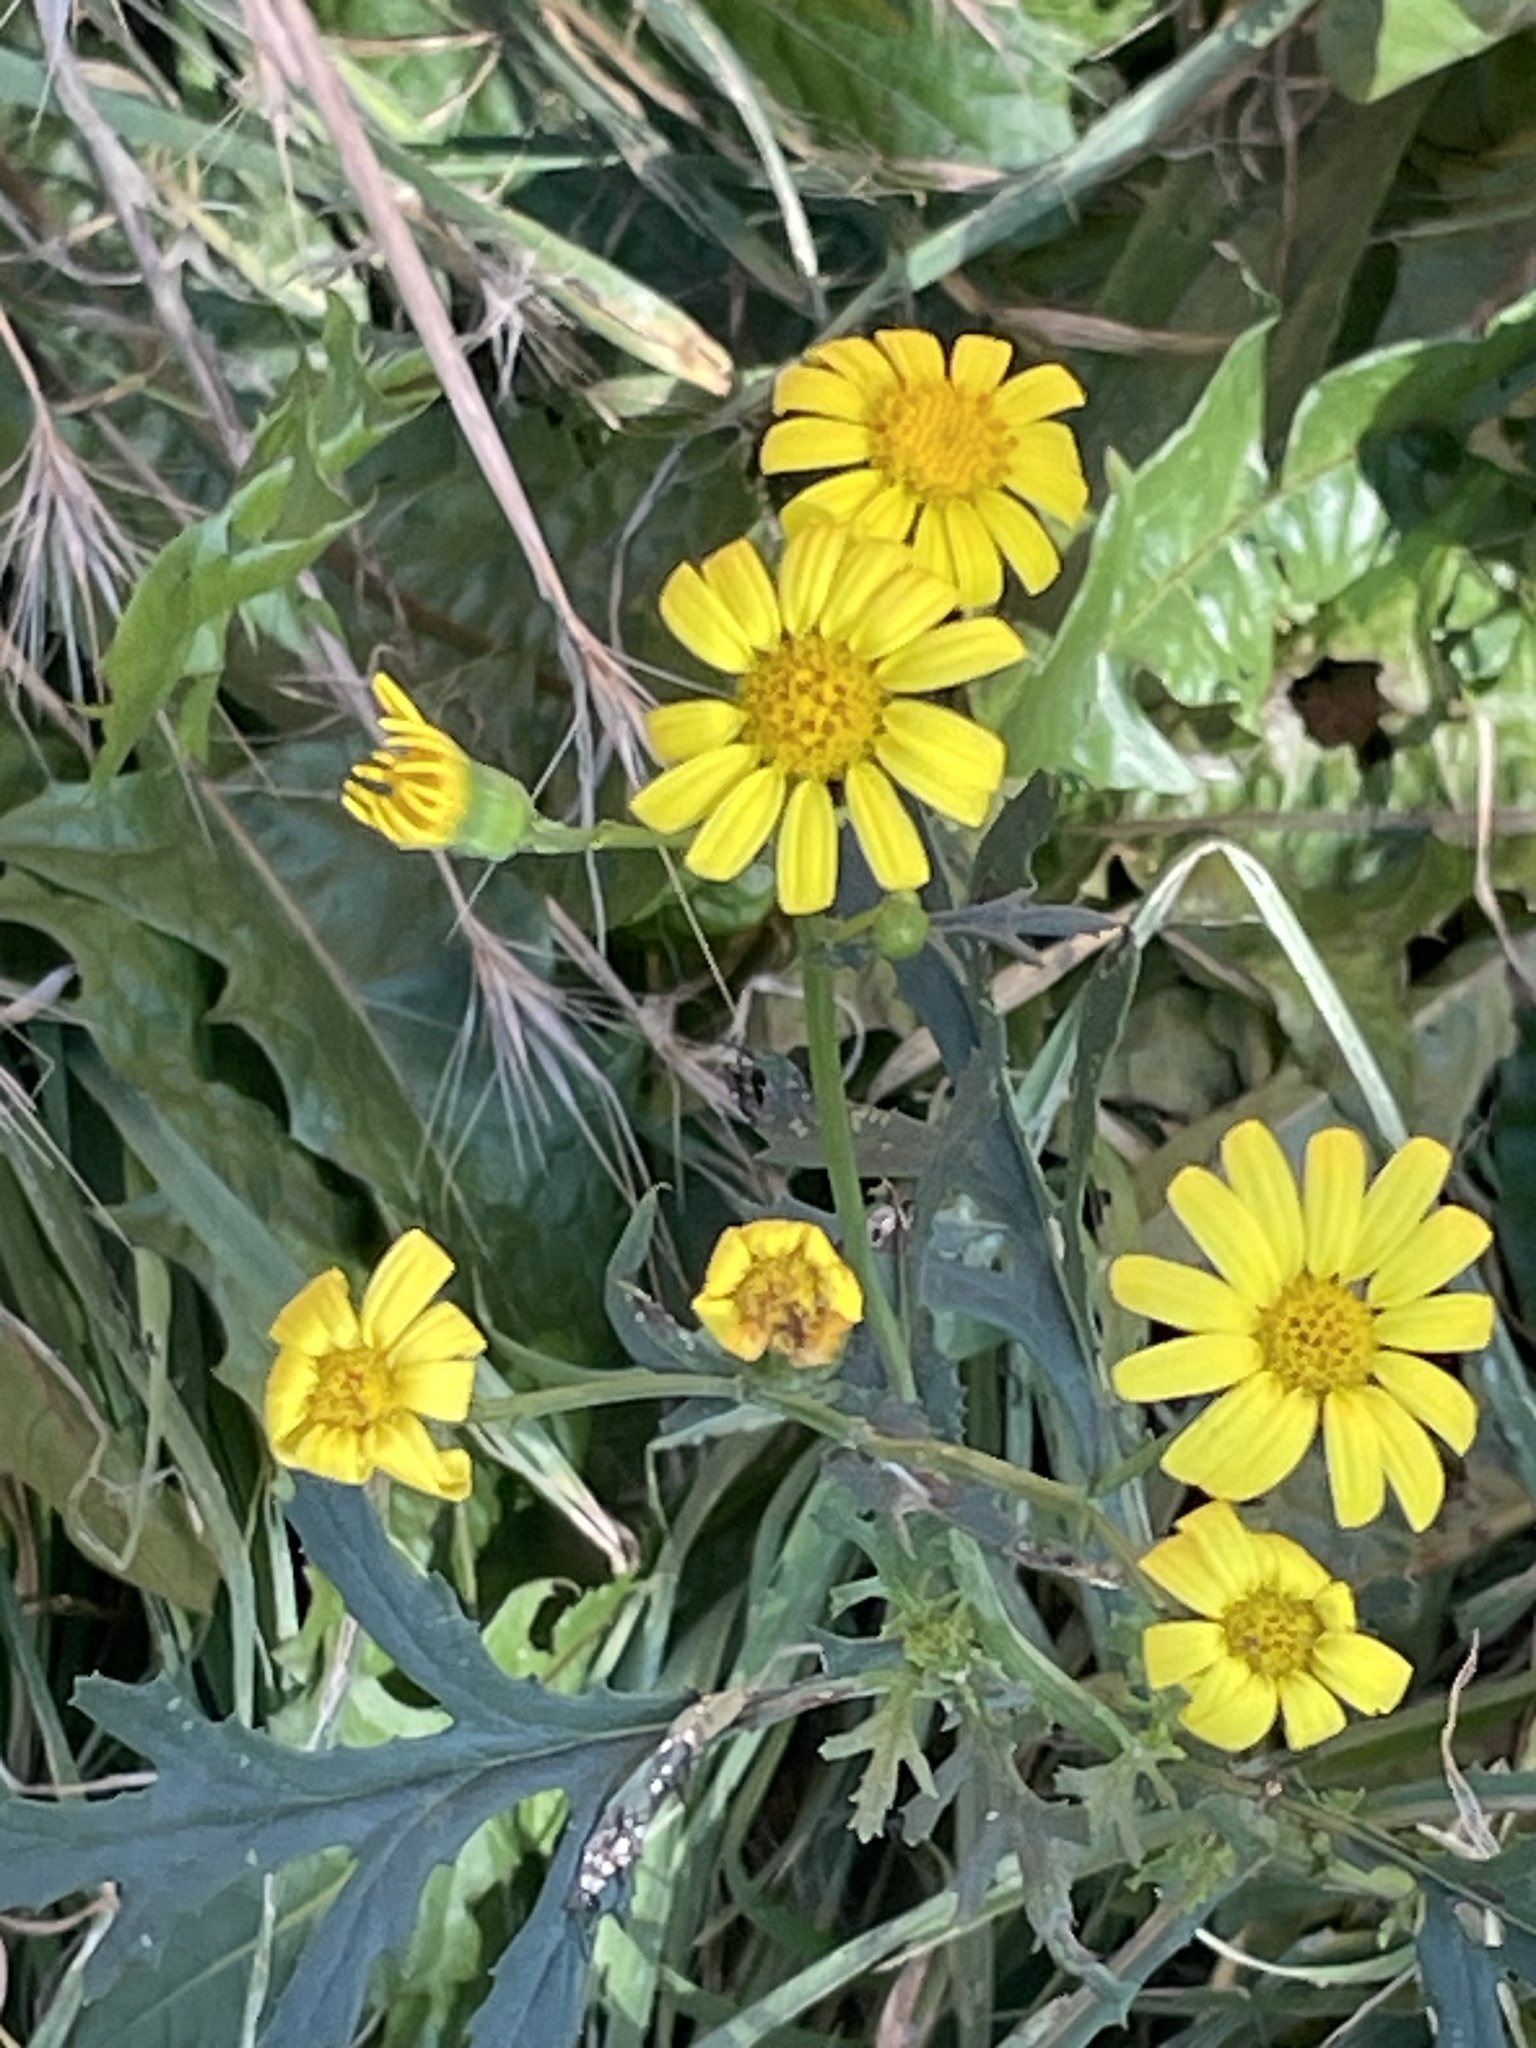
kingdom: Plantae
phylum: Tracheophyta
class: Magnoliopsida
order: Asterales
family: Asteraceae
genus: Senecio
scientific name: Senecio squalidus
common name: Oxford ragwort
